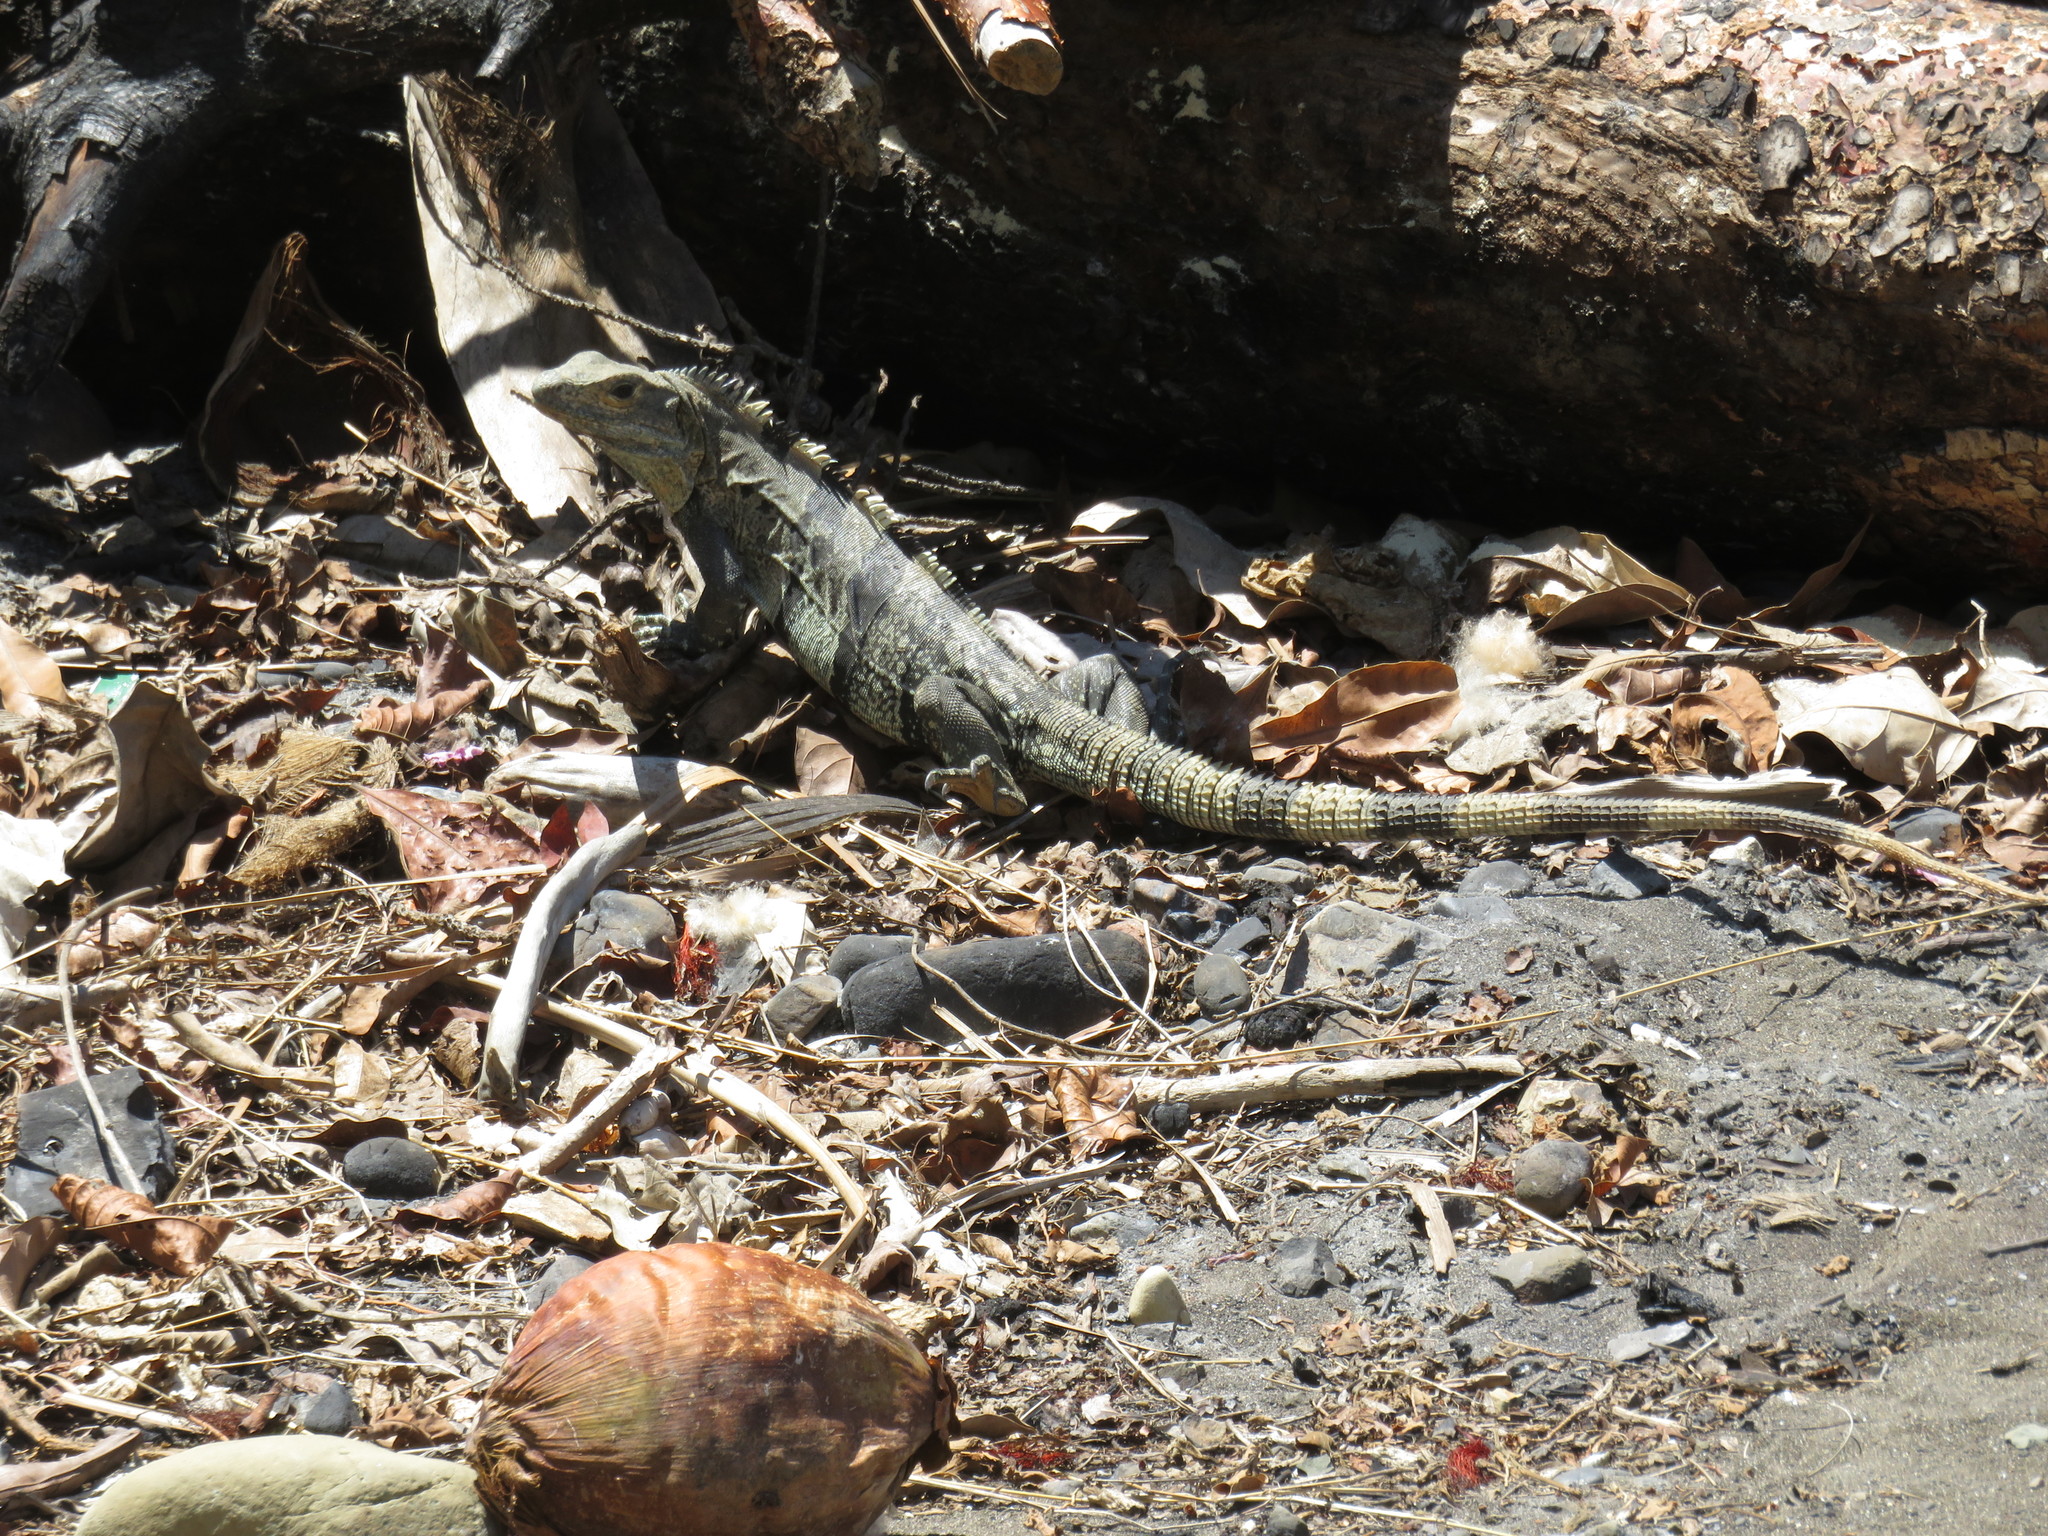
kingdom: Animalia
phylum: Chordata
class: Squamata
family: Iguanidae
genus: Ctenosaura
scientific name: Ctenosaura similis
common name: Black spiny-tailed iguana
